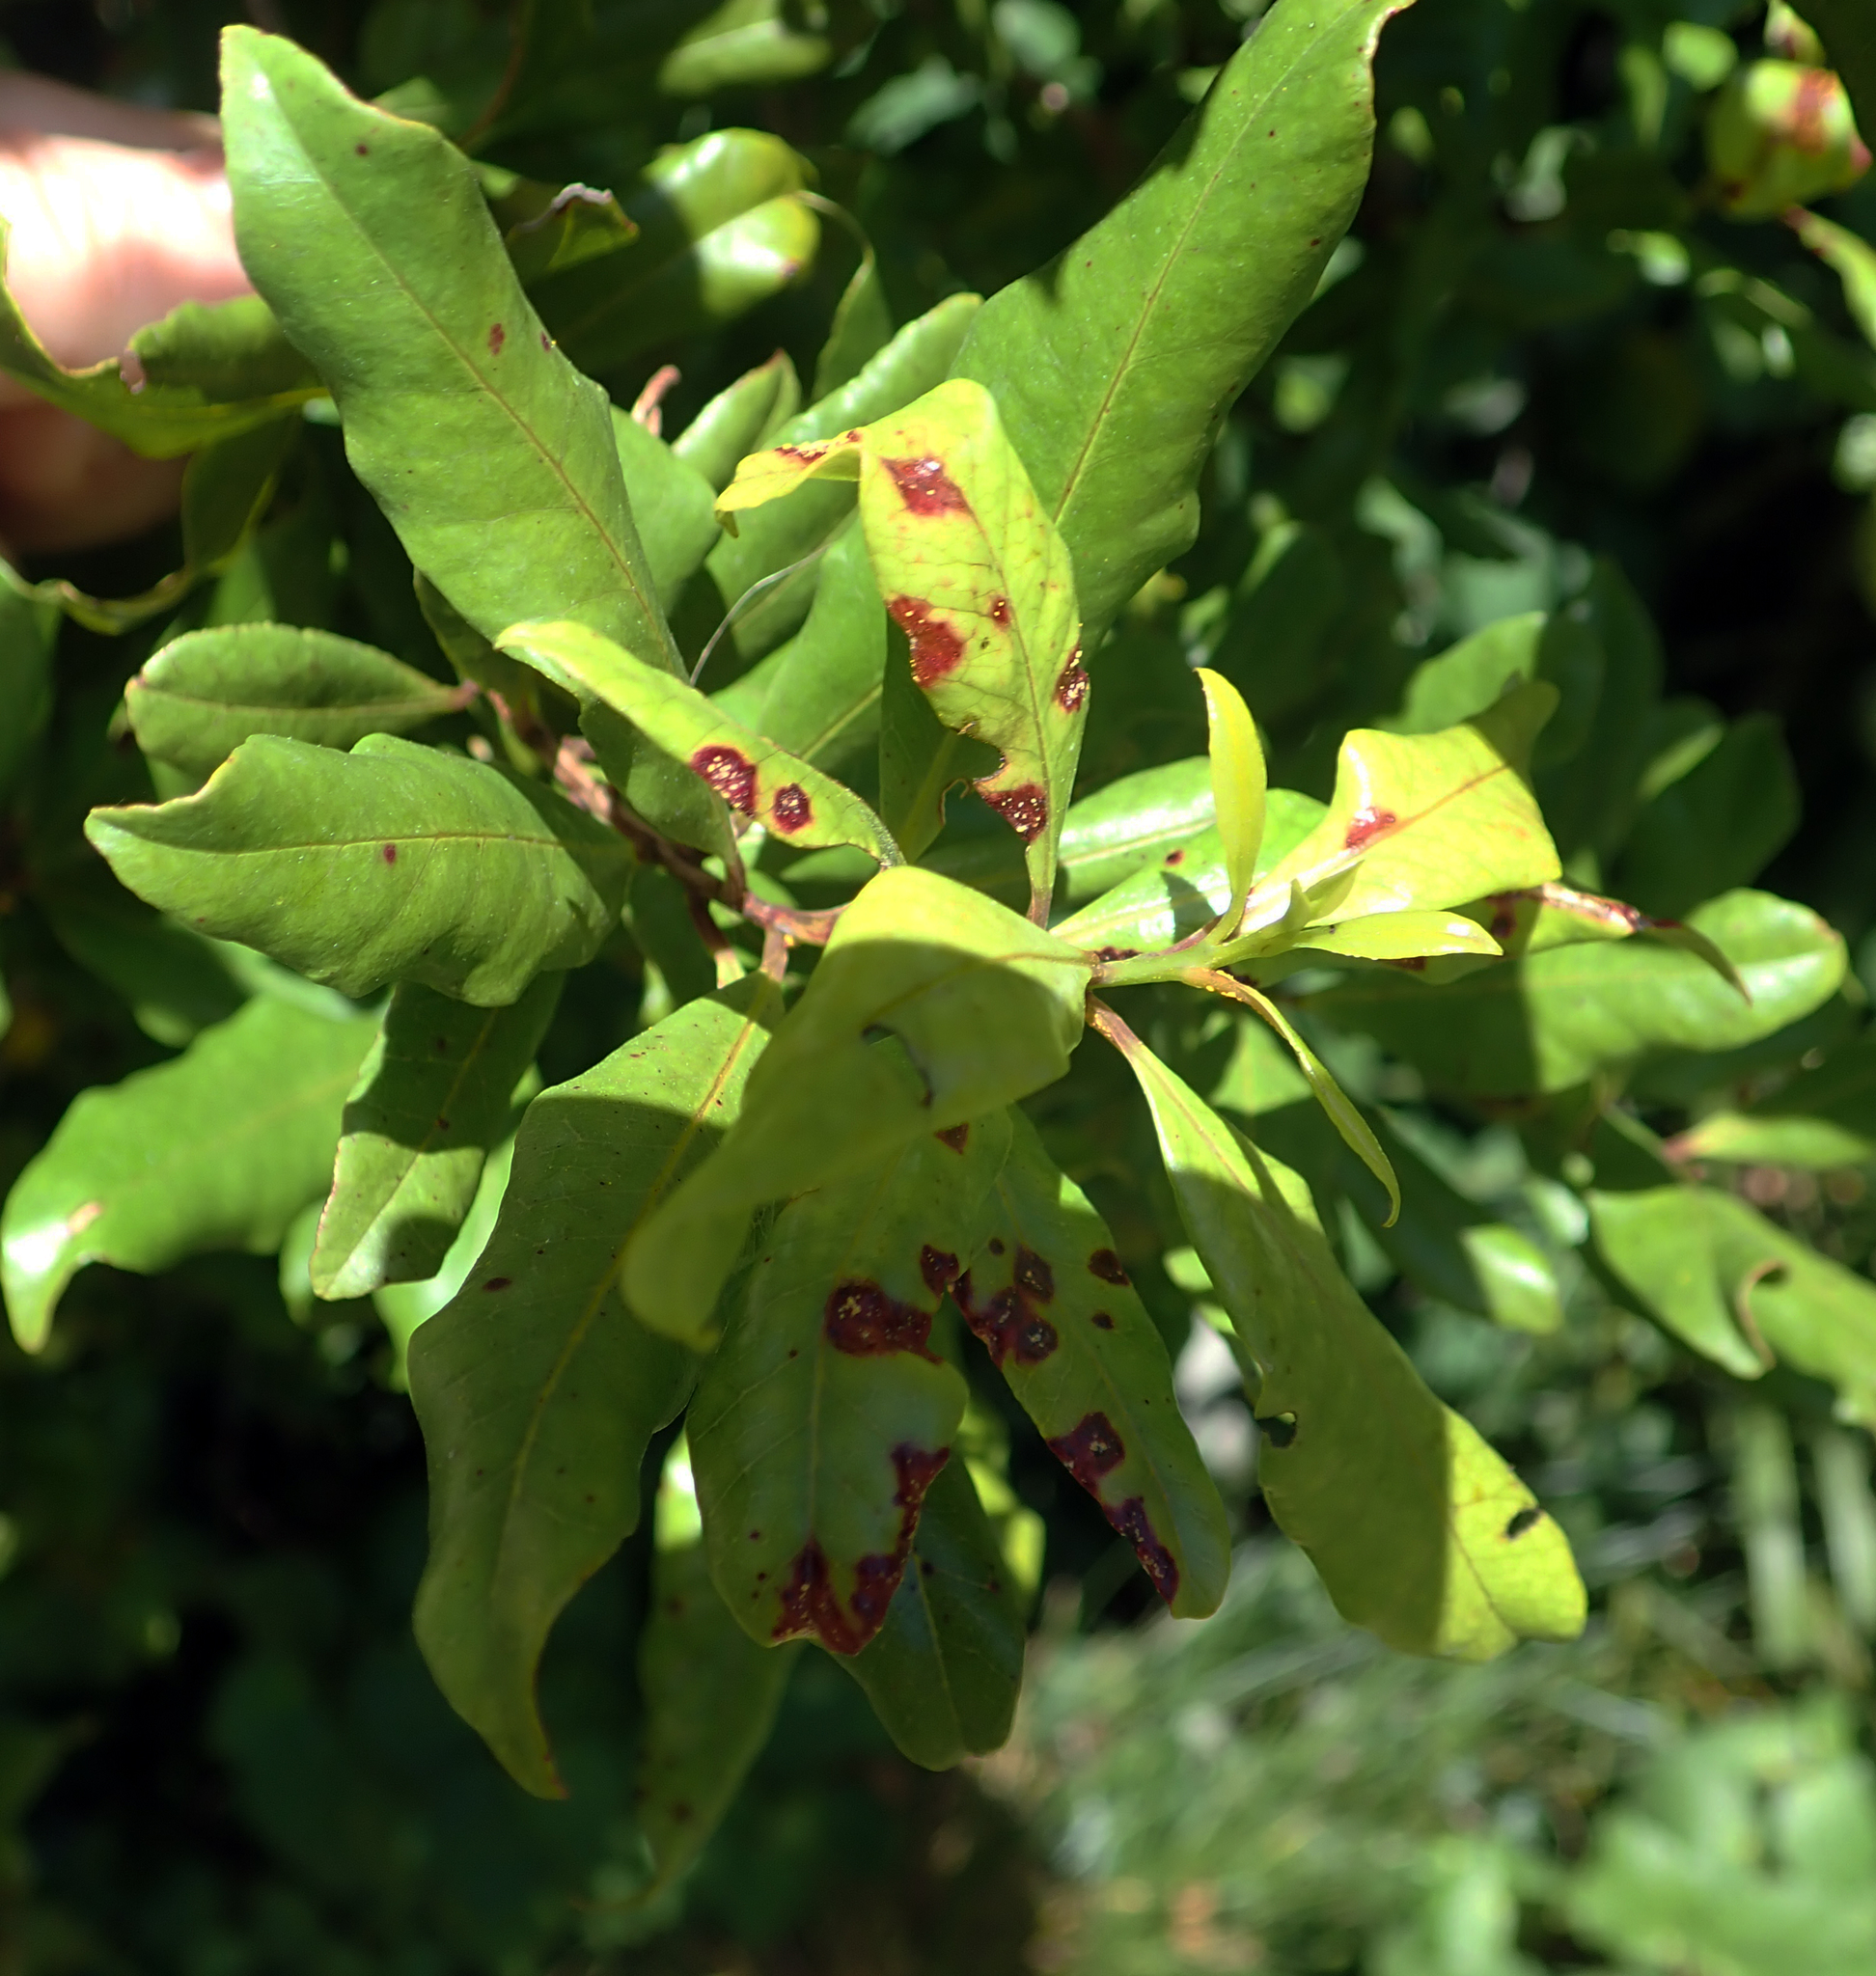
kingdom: Fungi
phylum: Basidiomycota
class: Pucciniomycetes
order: Pucciniales
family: Sphaerophragmiaceae
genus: Austropuccinia
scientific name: Austropuccinia psidii
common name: Myrtle rust
